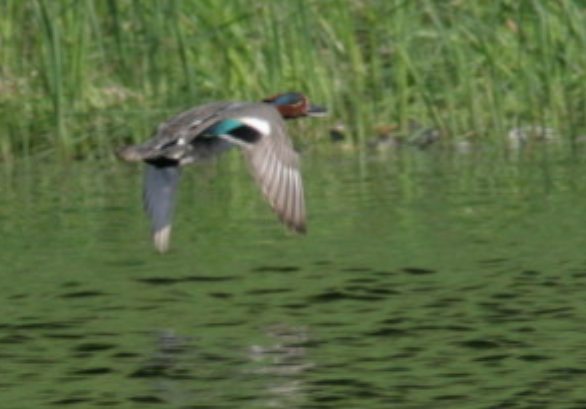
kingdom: Animalia
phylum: Chordata
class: Aves
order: Anseriformes
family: Anatidae
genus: Anas
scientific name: Anas crecca
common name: Eurasian teal
